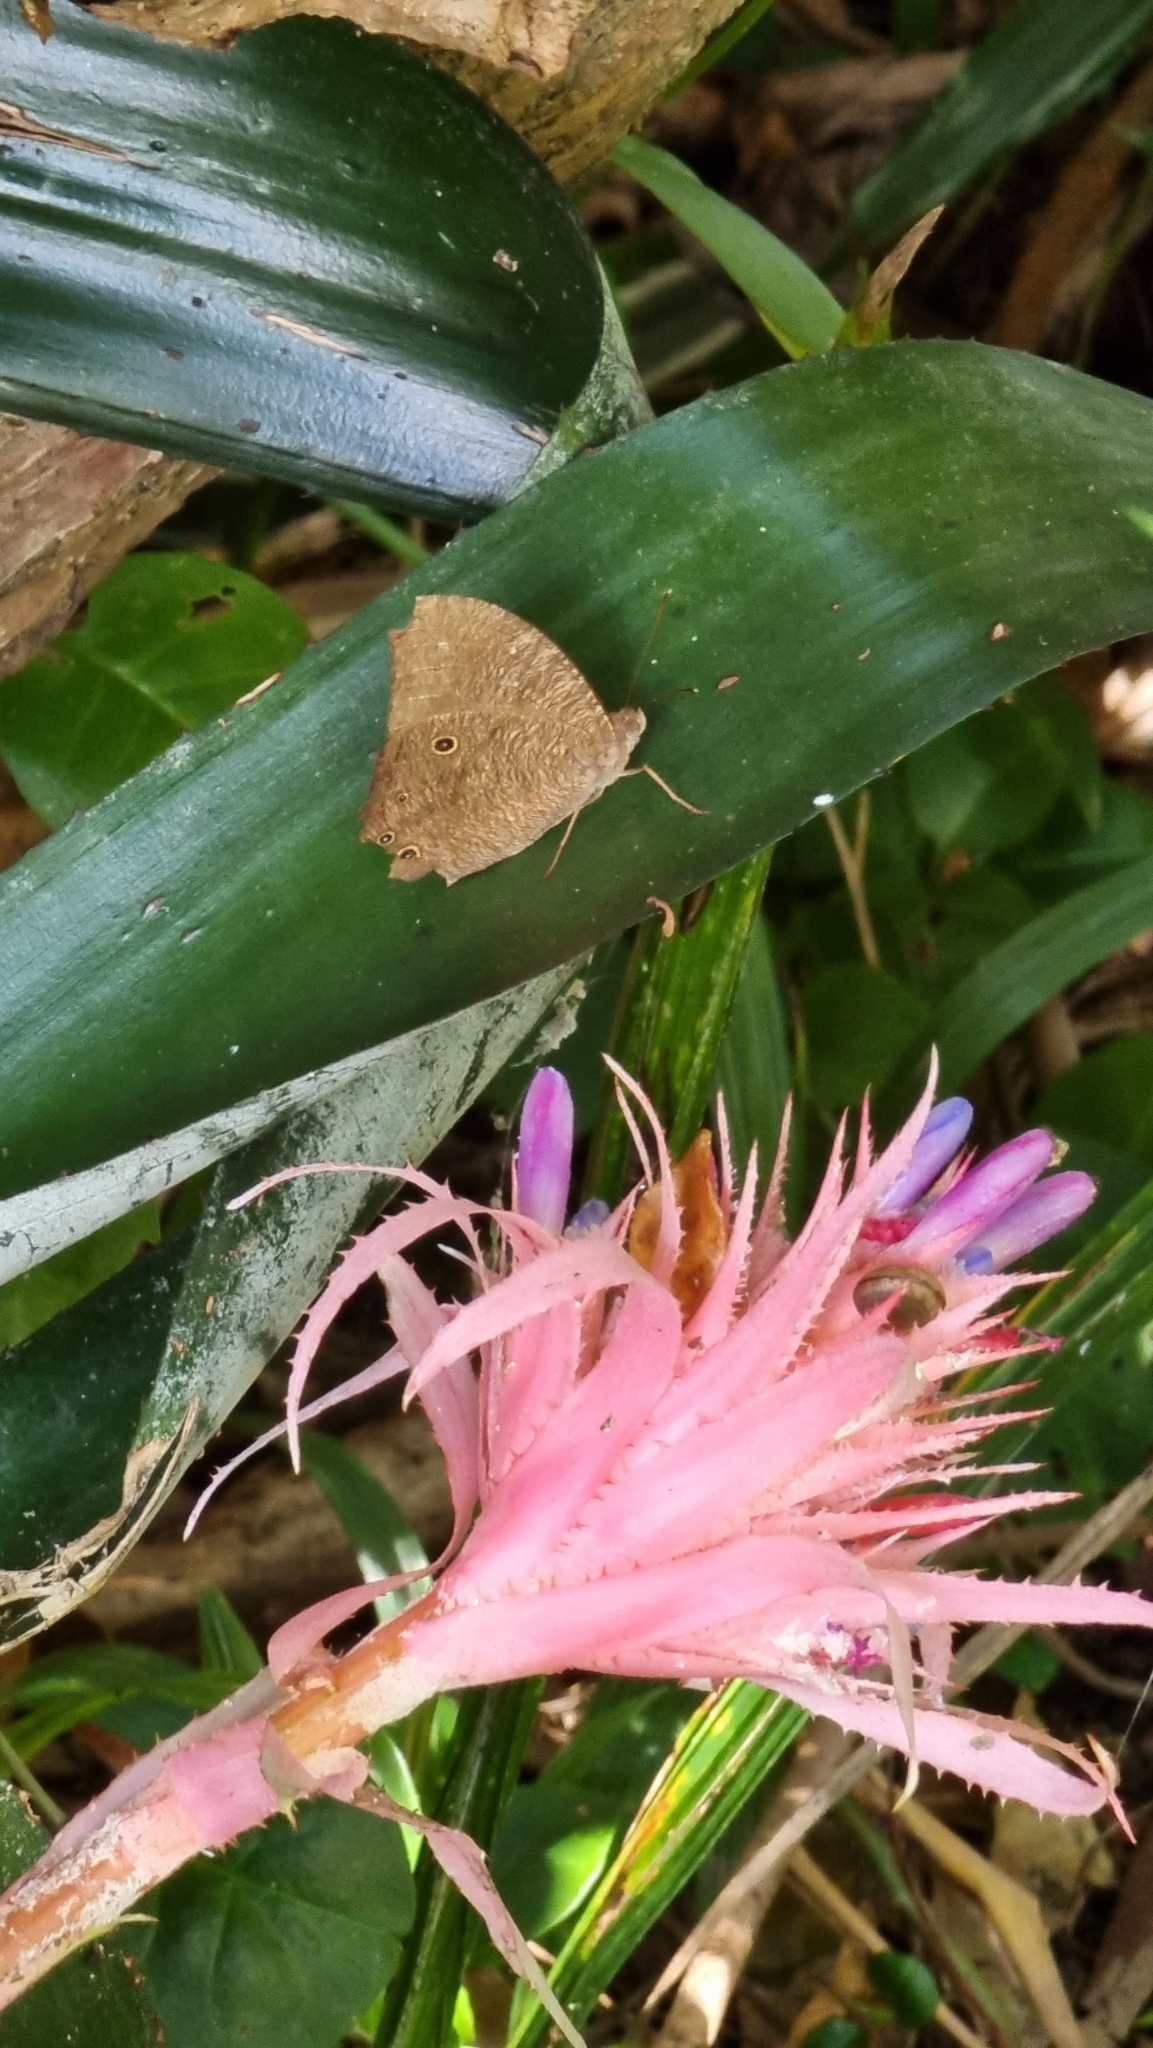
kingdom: Animalia
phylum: Arthropoda
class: Insecta
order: Lepidoptera
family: Nymphalidae
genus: Melanitis
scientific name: Melanitis leda
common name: Twilight brown
